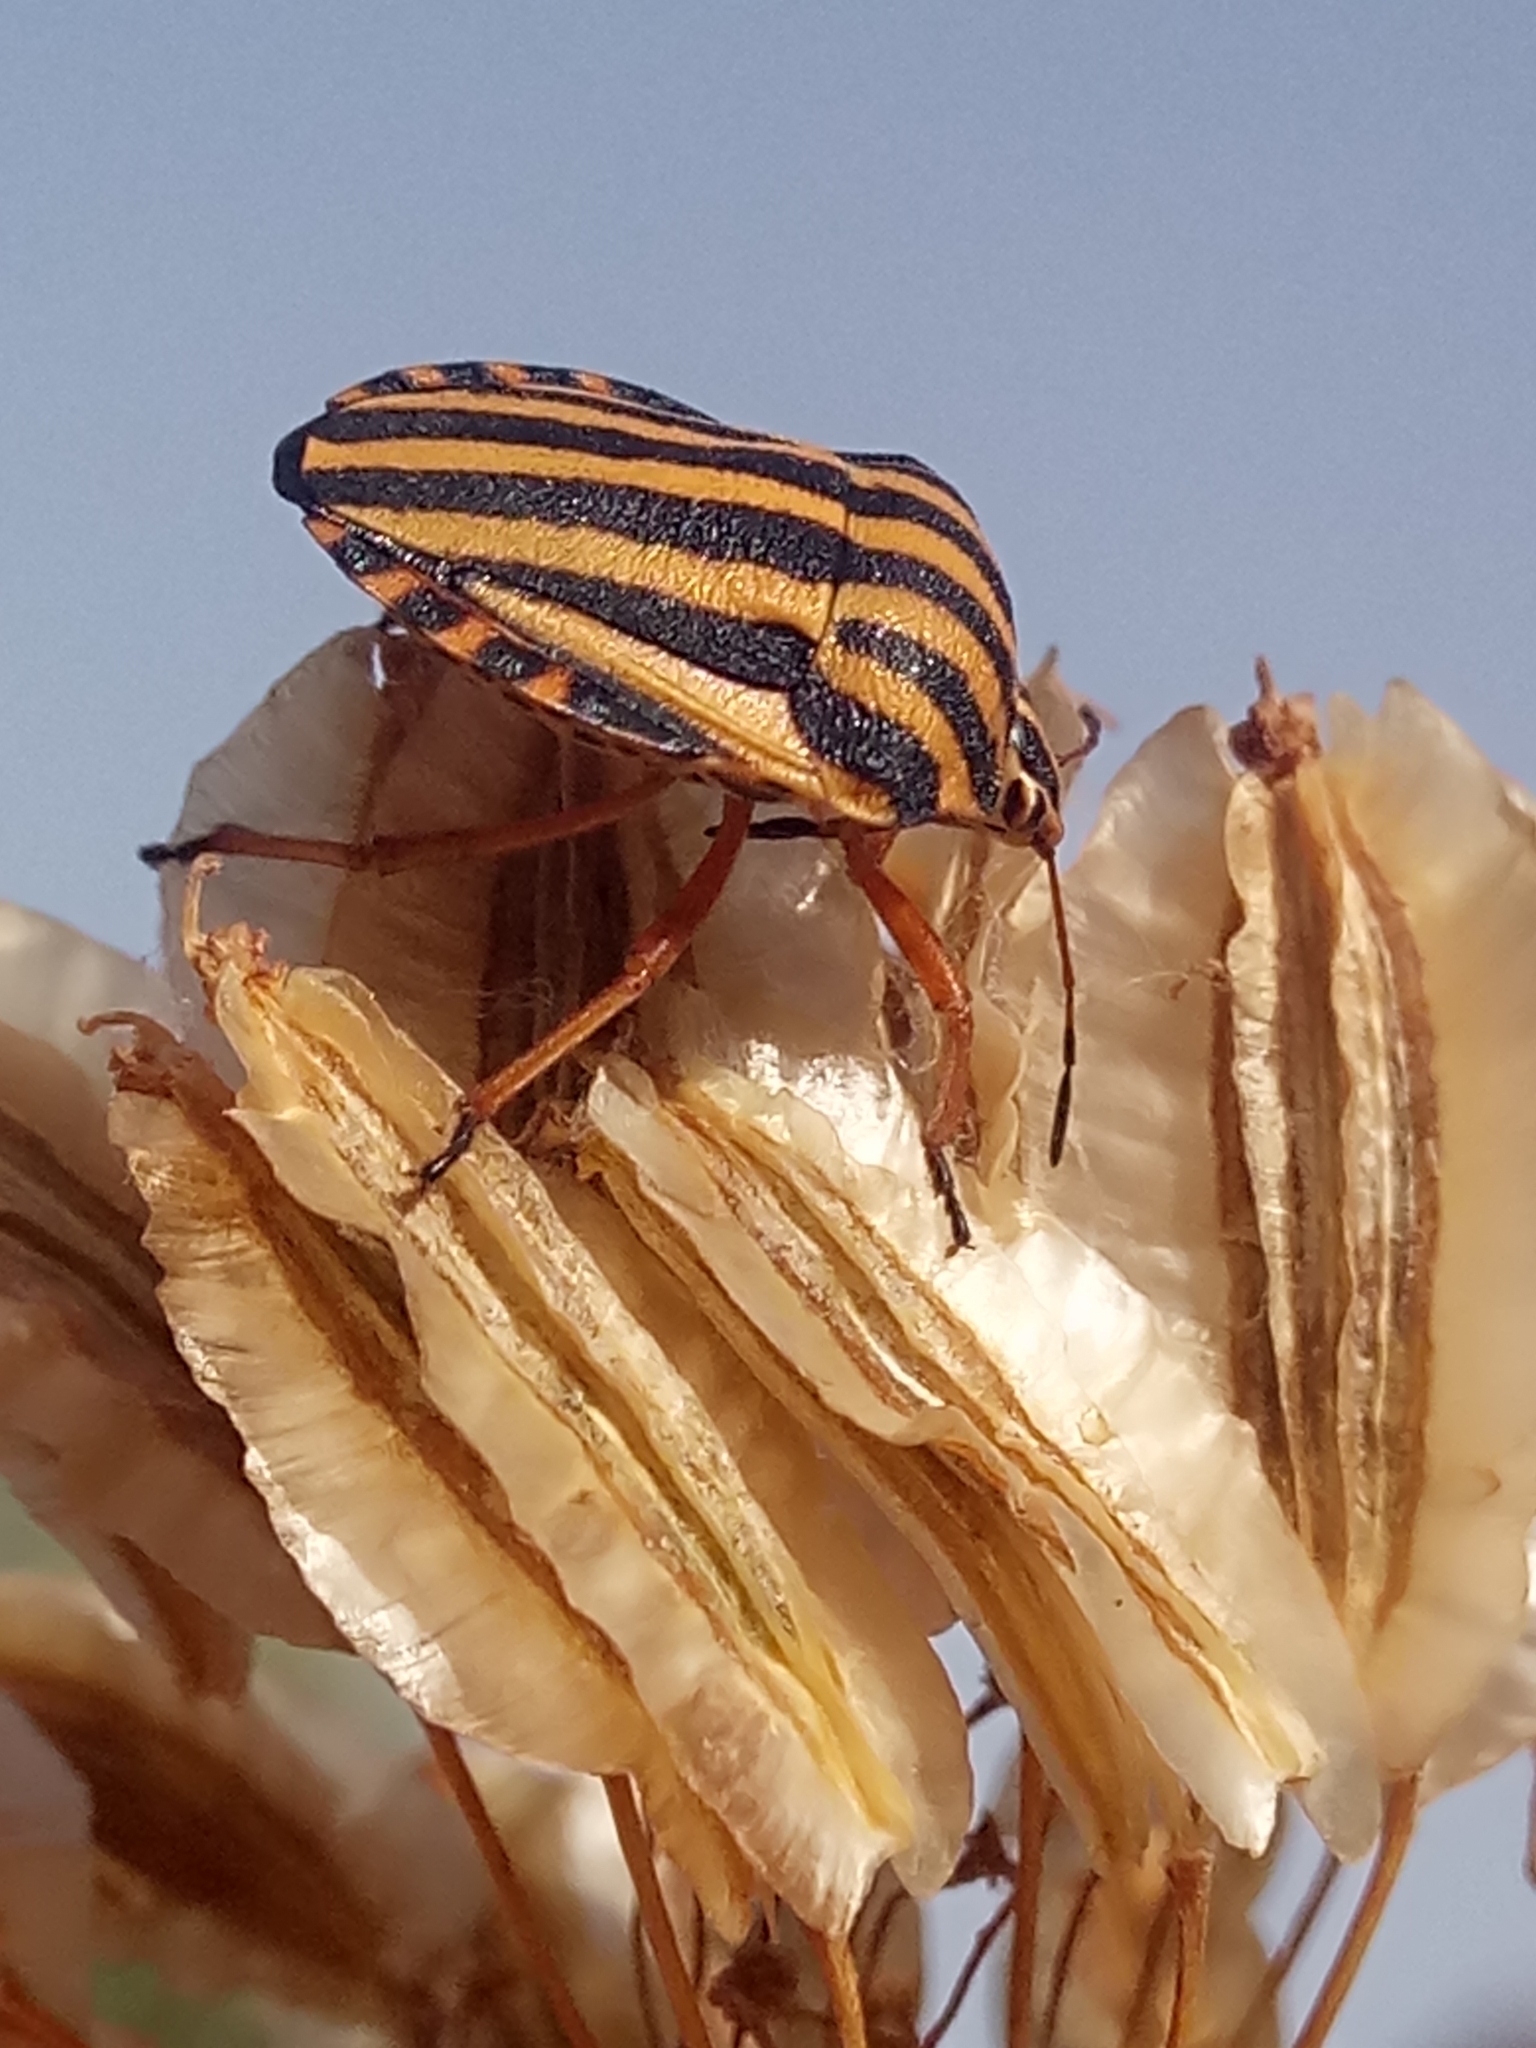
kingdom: Animalia
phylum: Arthropoda
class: Insecta
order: Hemiptera
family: Pentatomidae
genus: Graphosoma
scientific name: Graphosoma lineatum
